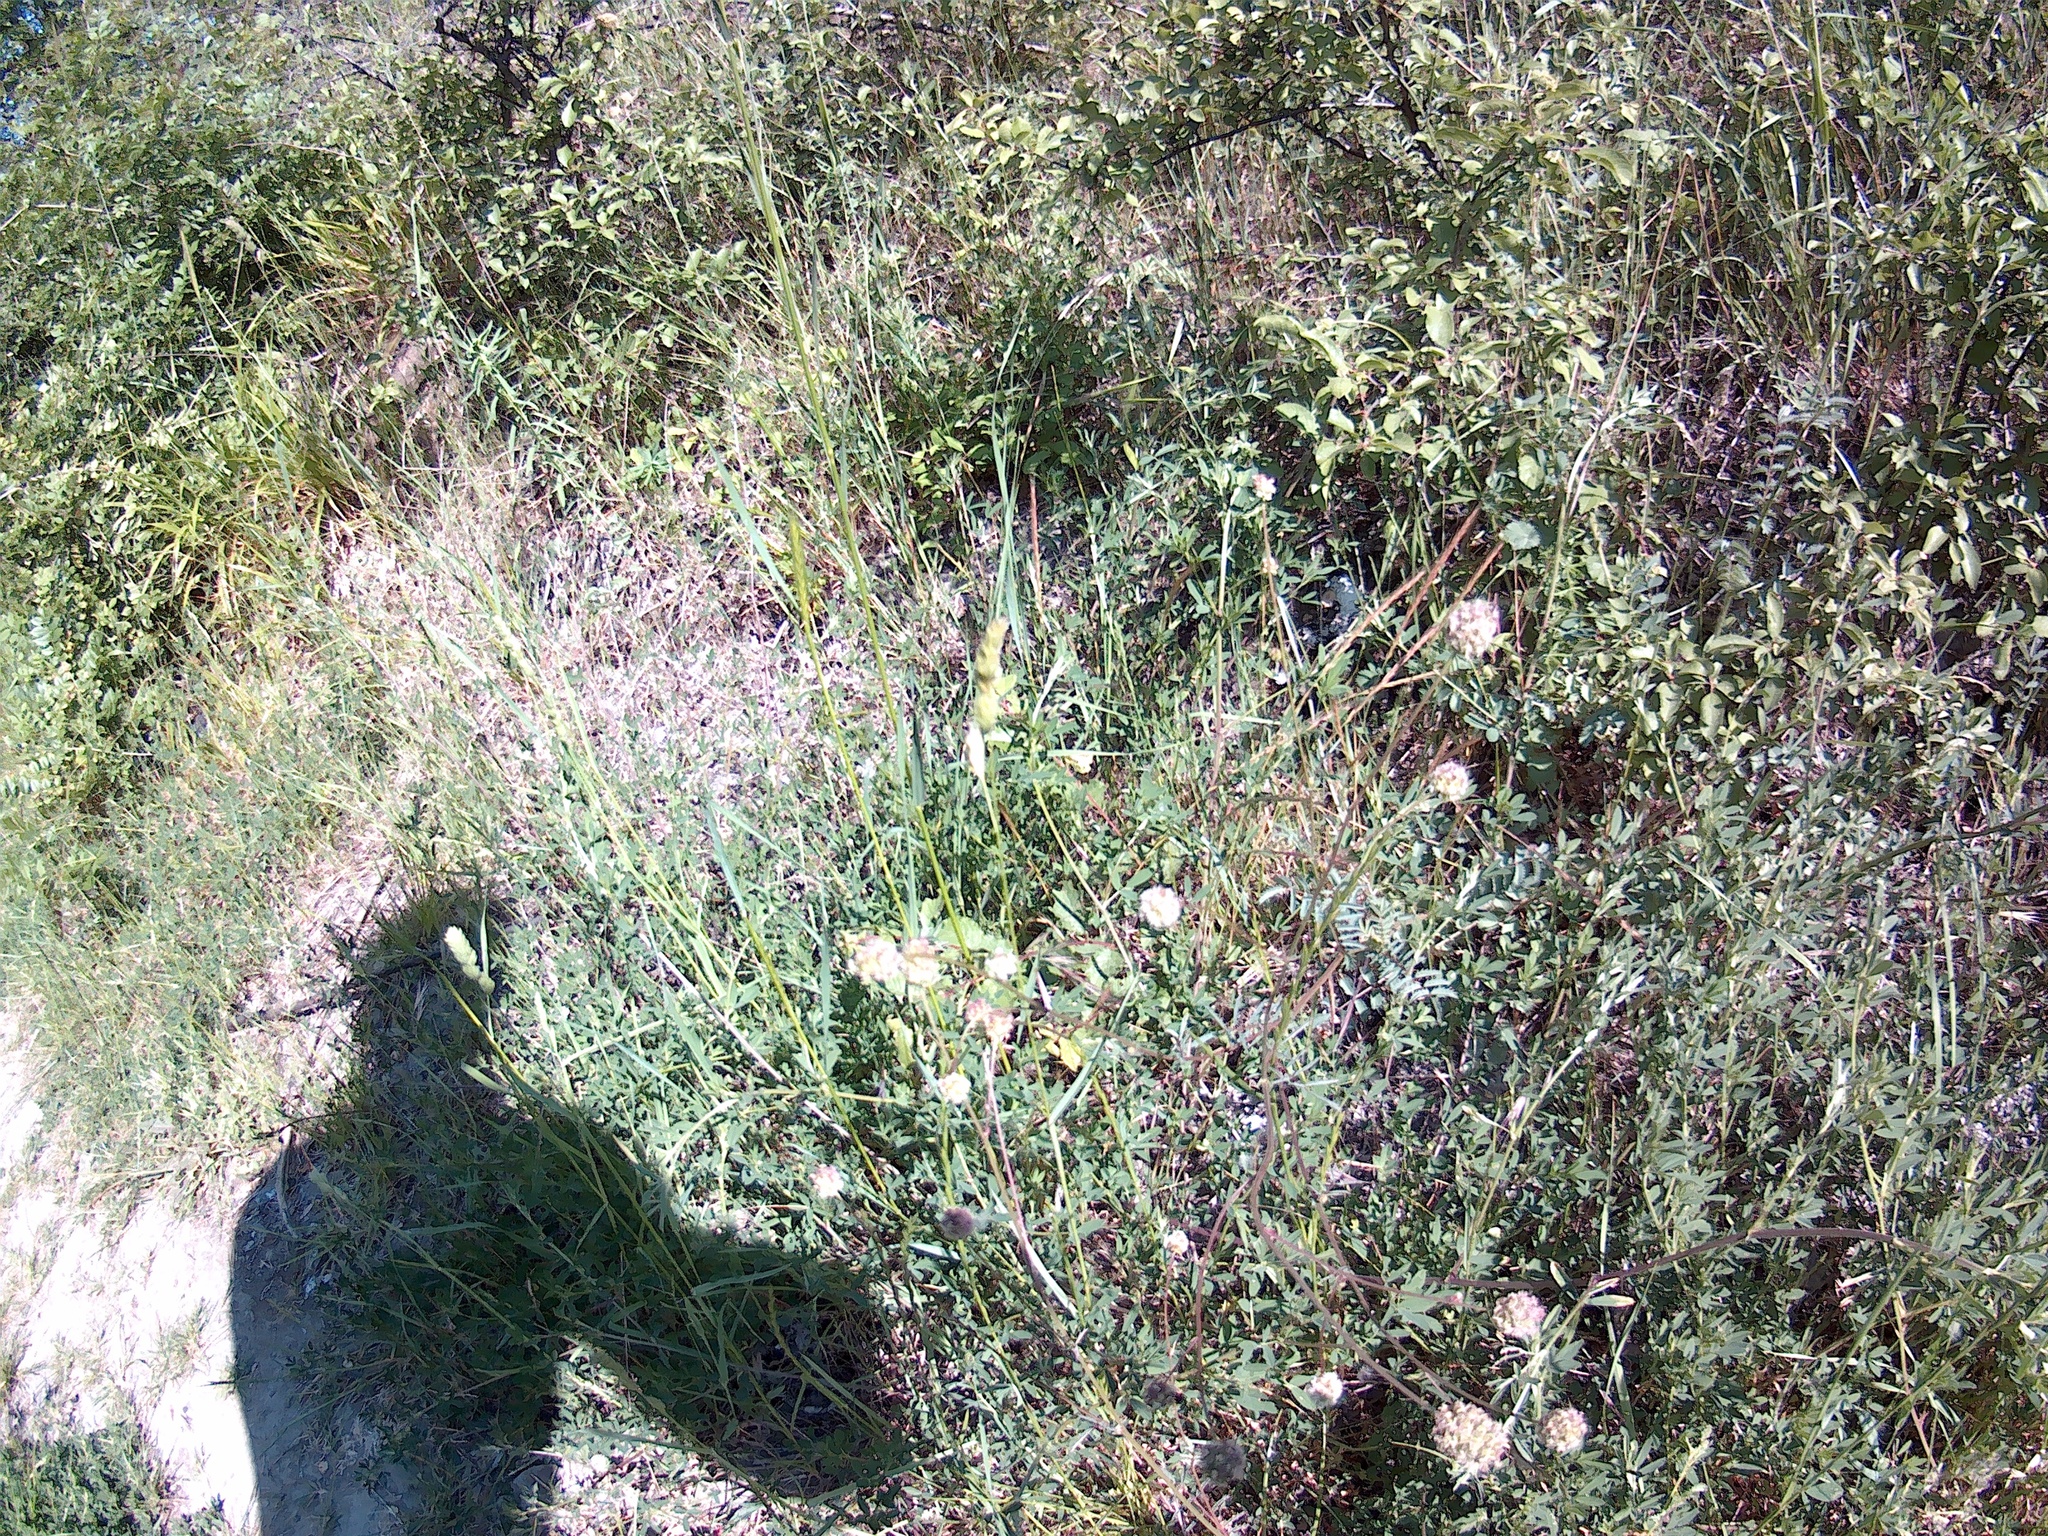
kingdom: Plantae
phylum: Tracheophyta
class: Magnoliopsida
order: Rosales
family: Rosaceae
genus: Poterium
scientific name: Poterium sanguisorba
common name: Salad burnet
